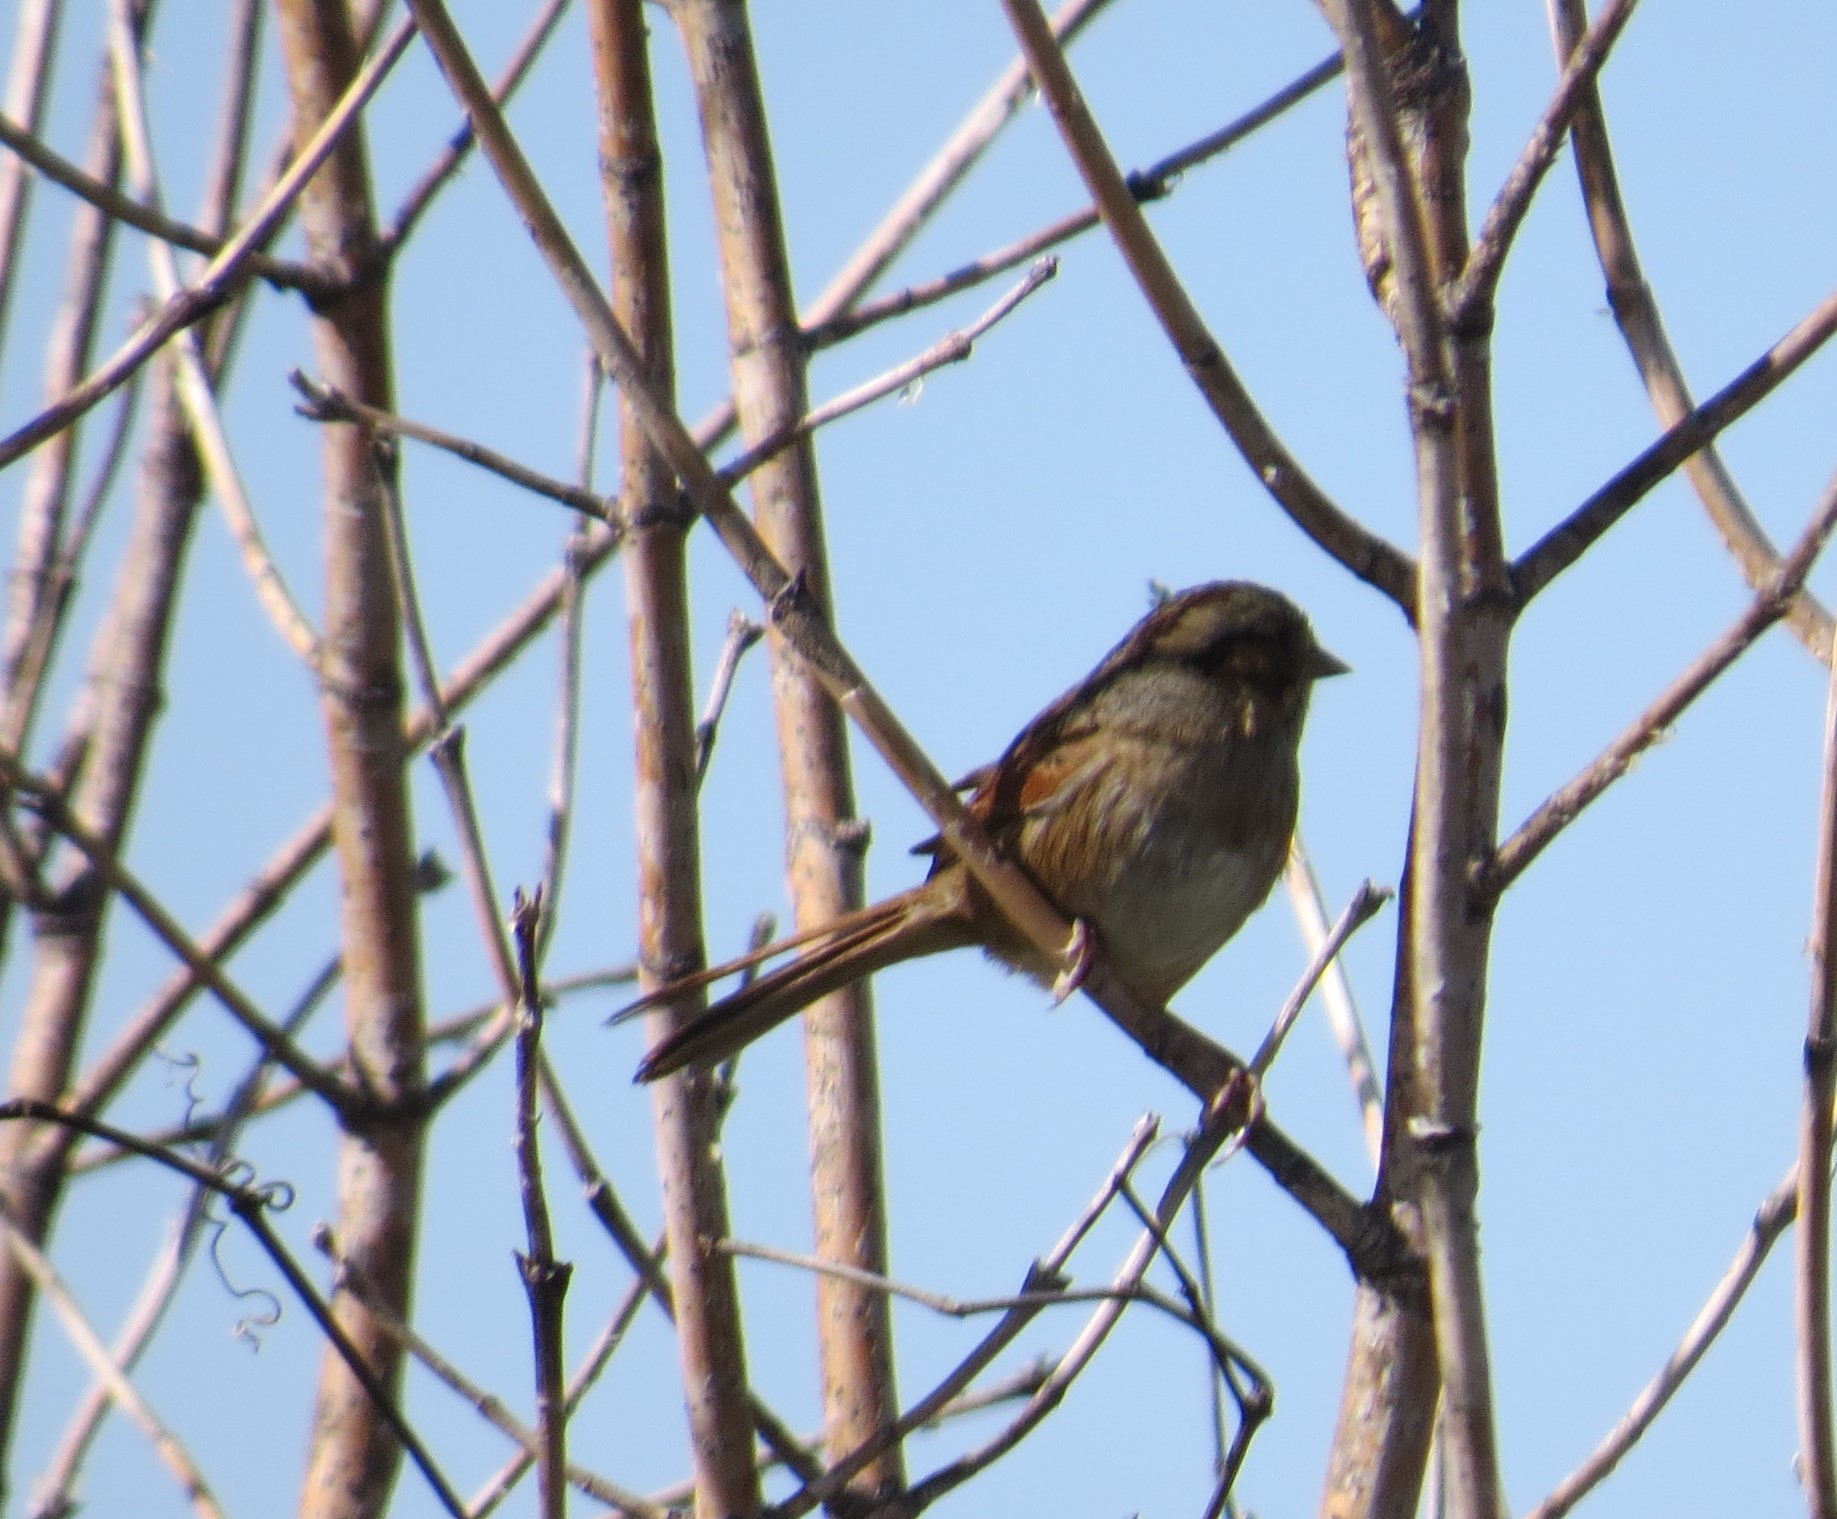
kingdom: Animalia
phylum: Chordata
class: Aves
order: Passeriformes
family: Passerellidae
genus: Melospiza
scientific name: Melospiza georgiana
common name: Swamp sparrow
